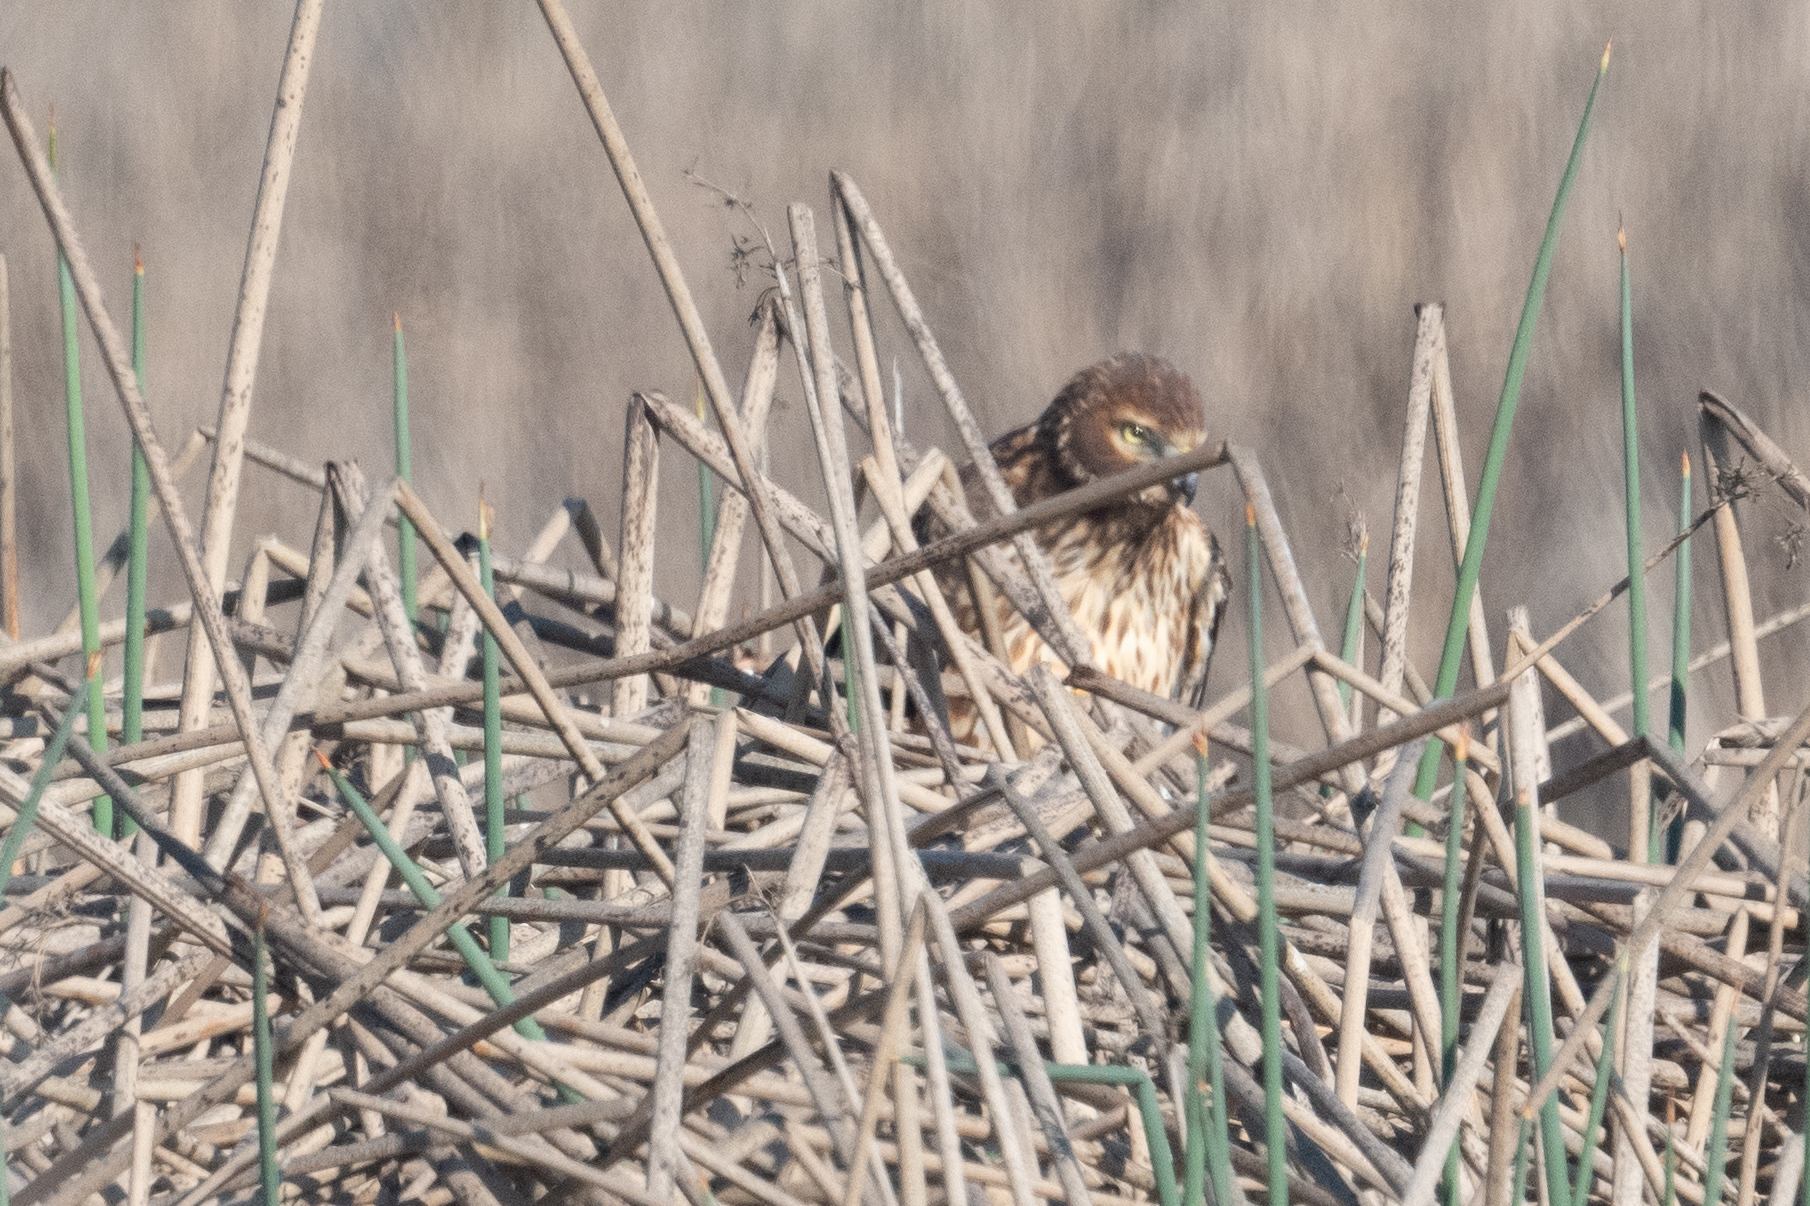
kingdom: Animalia
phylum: Chordata
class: Aves
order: Accipitriformes
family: Accipitridae
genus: Circus
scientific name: Circus cyaneus
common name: Hen harrier
